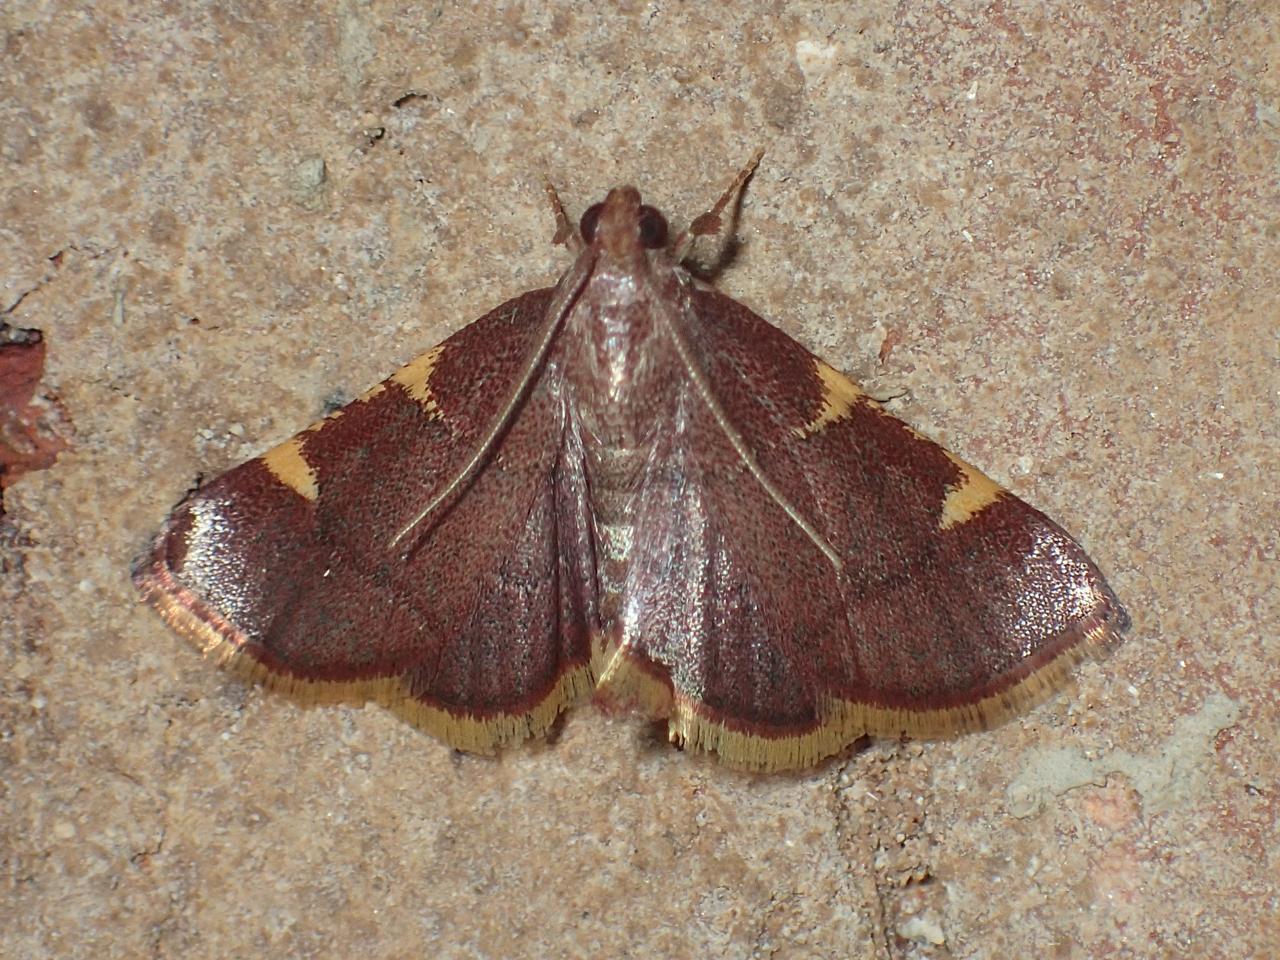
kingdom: Animalia
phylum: Arthropoda
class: Insecta
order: Lepidoptera
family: Pyralidae
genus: Hypsopygia
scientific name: Hypsopygia olinalis
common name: Yellow-fringed dolichomia moth
